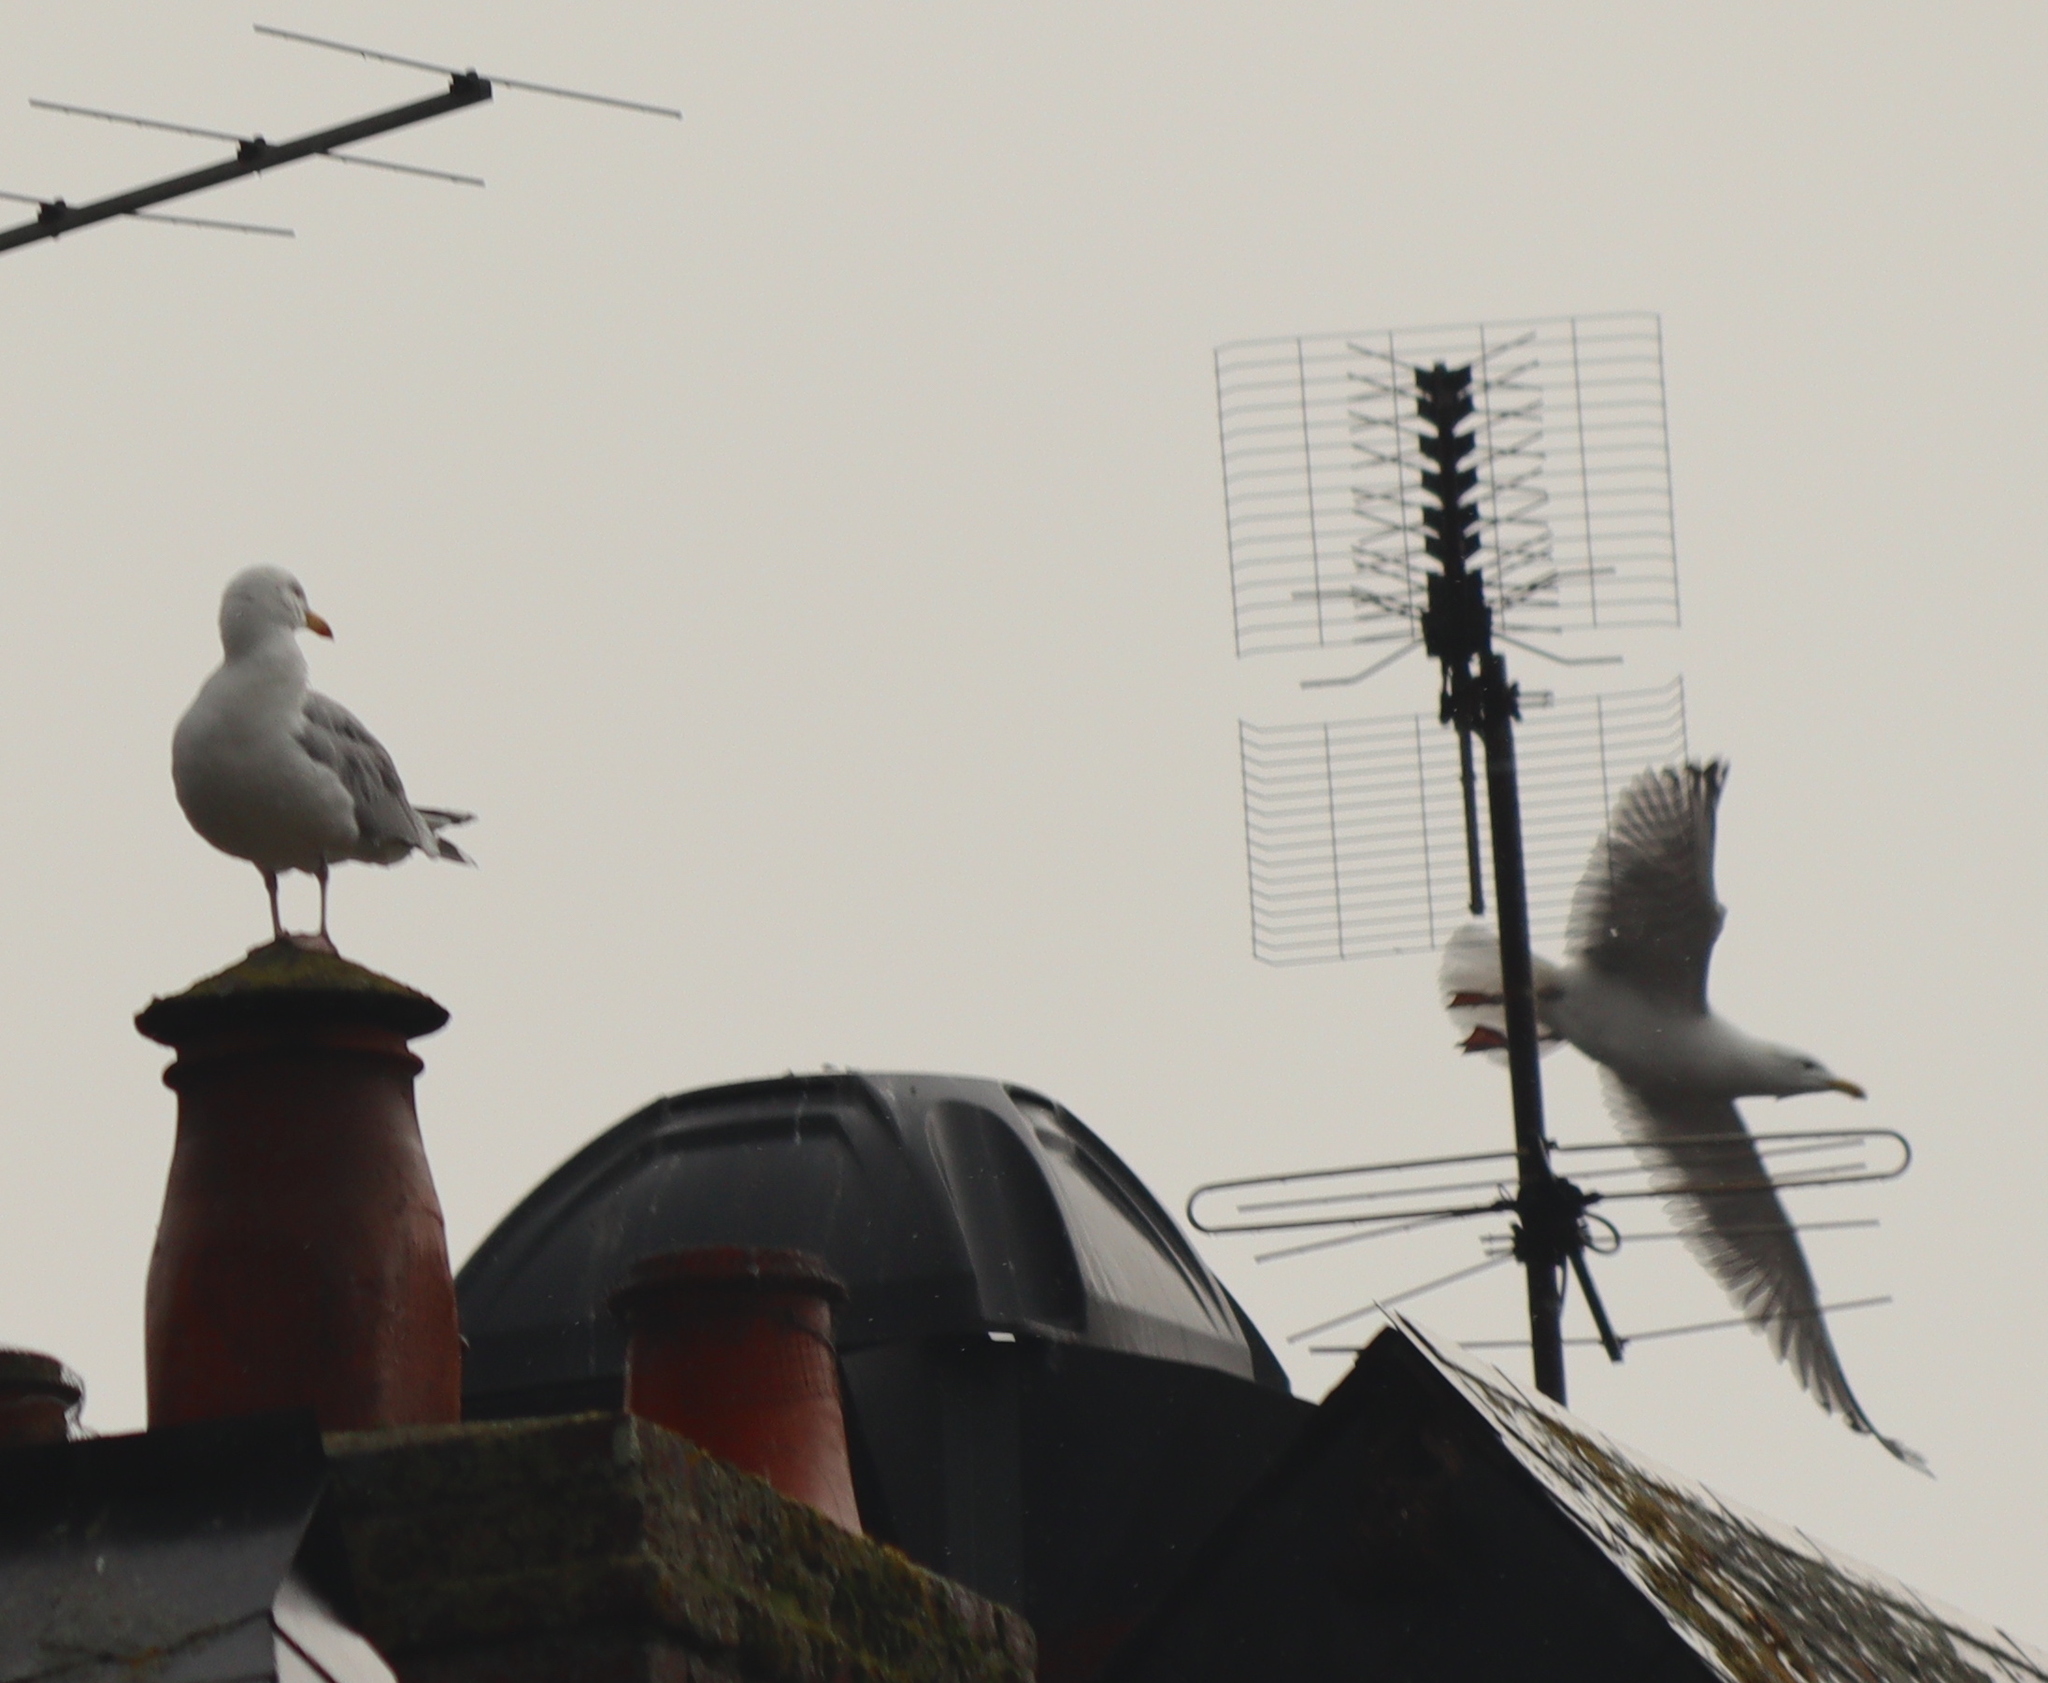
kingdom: Animalia
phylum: Chordata
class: Aves
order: Charadriiformes
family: Laridae
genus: Larus
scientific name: Larus argentatus
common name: Herring gull
